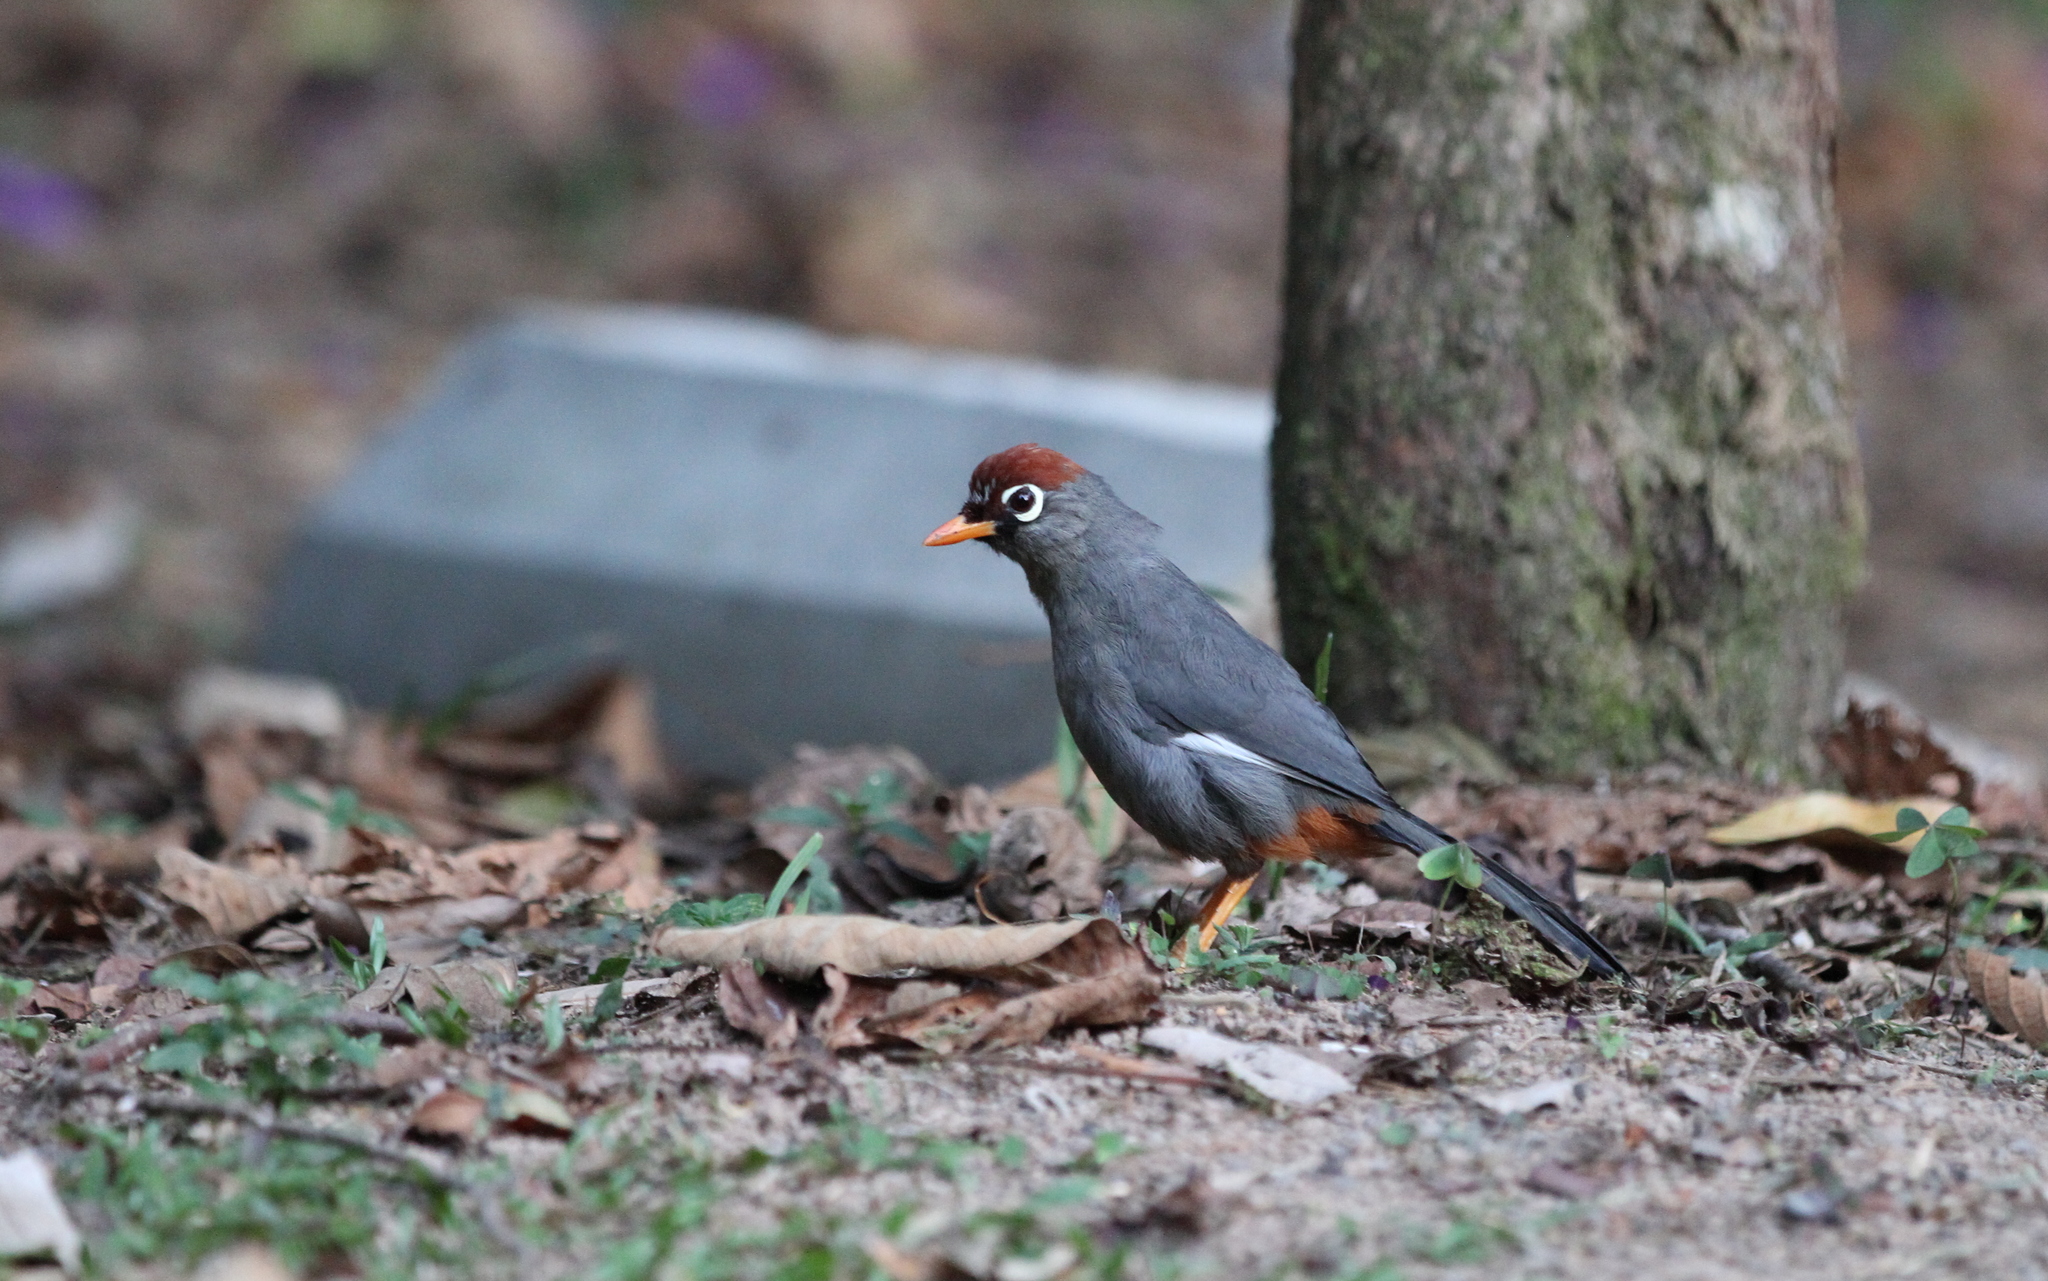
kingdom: Animalia
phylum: Chordata
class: Aves
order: Passeriformes
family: Leiothrichidae
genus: Garrulax
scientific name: Garrulax mitratus
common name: Chestnut-capped laughingthrush
